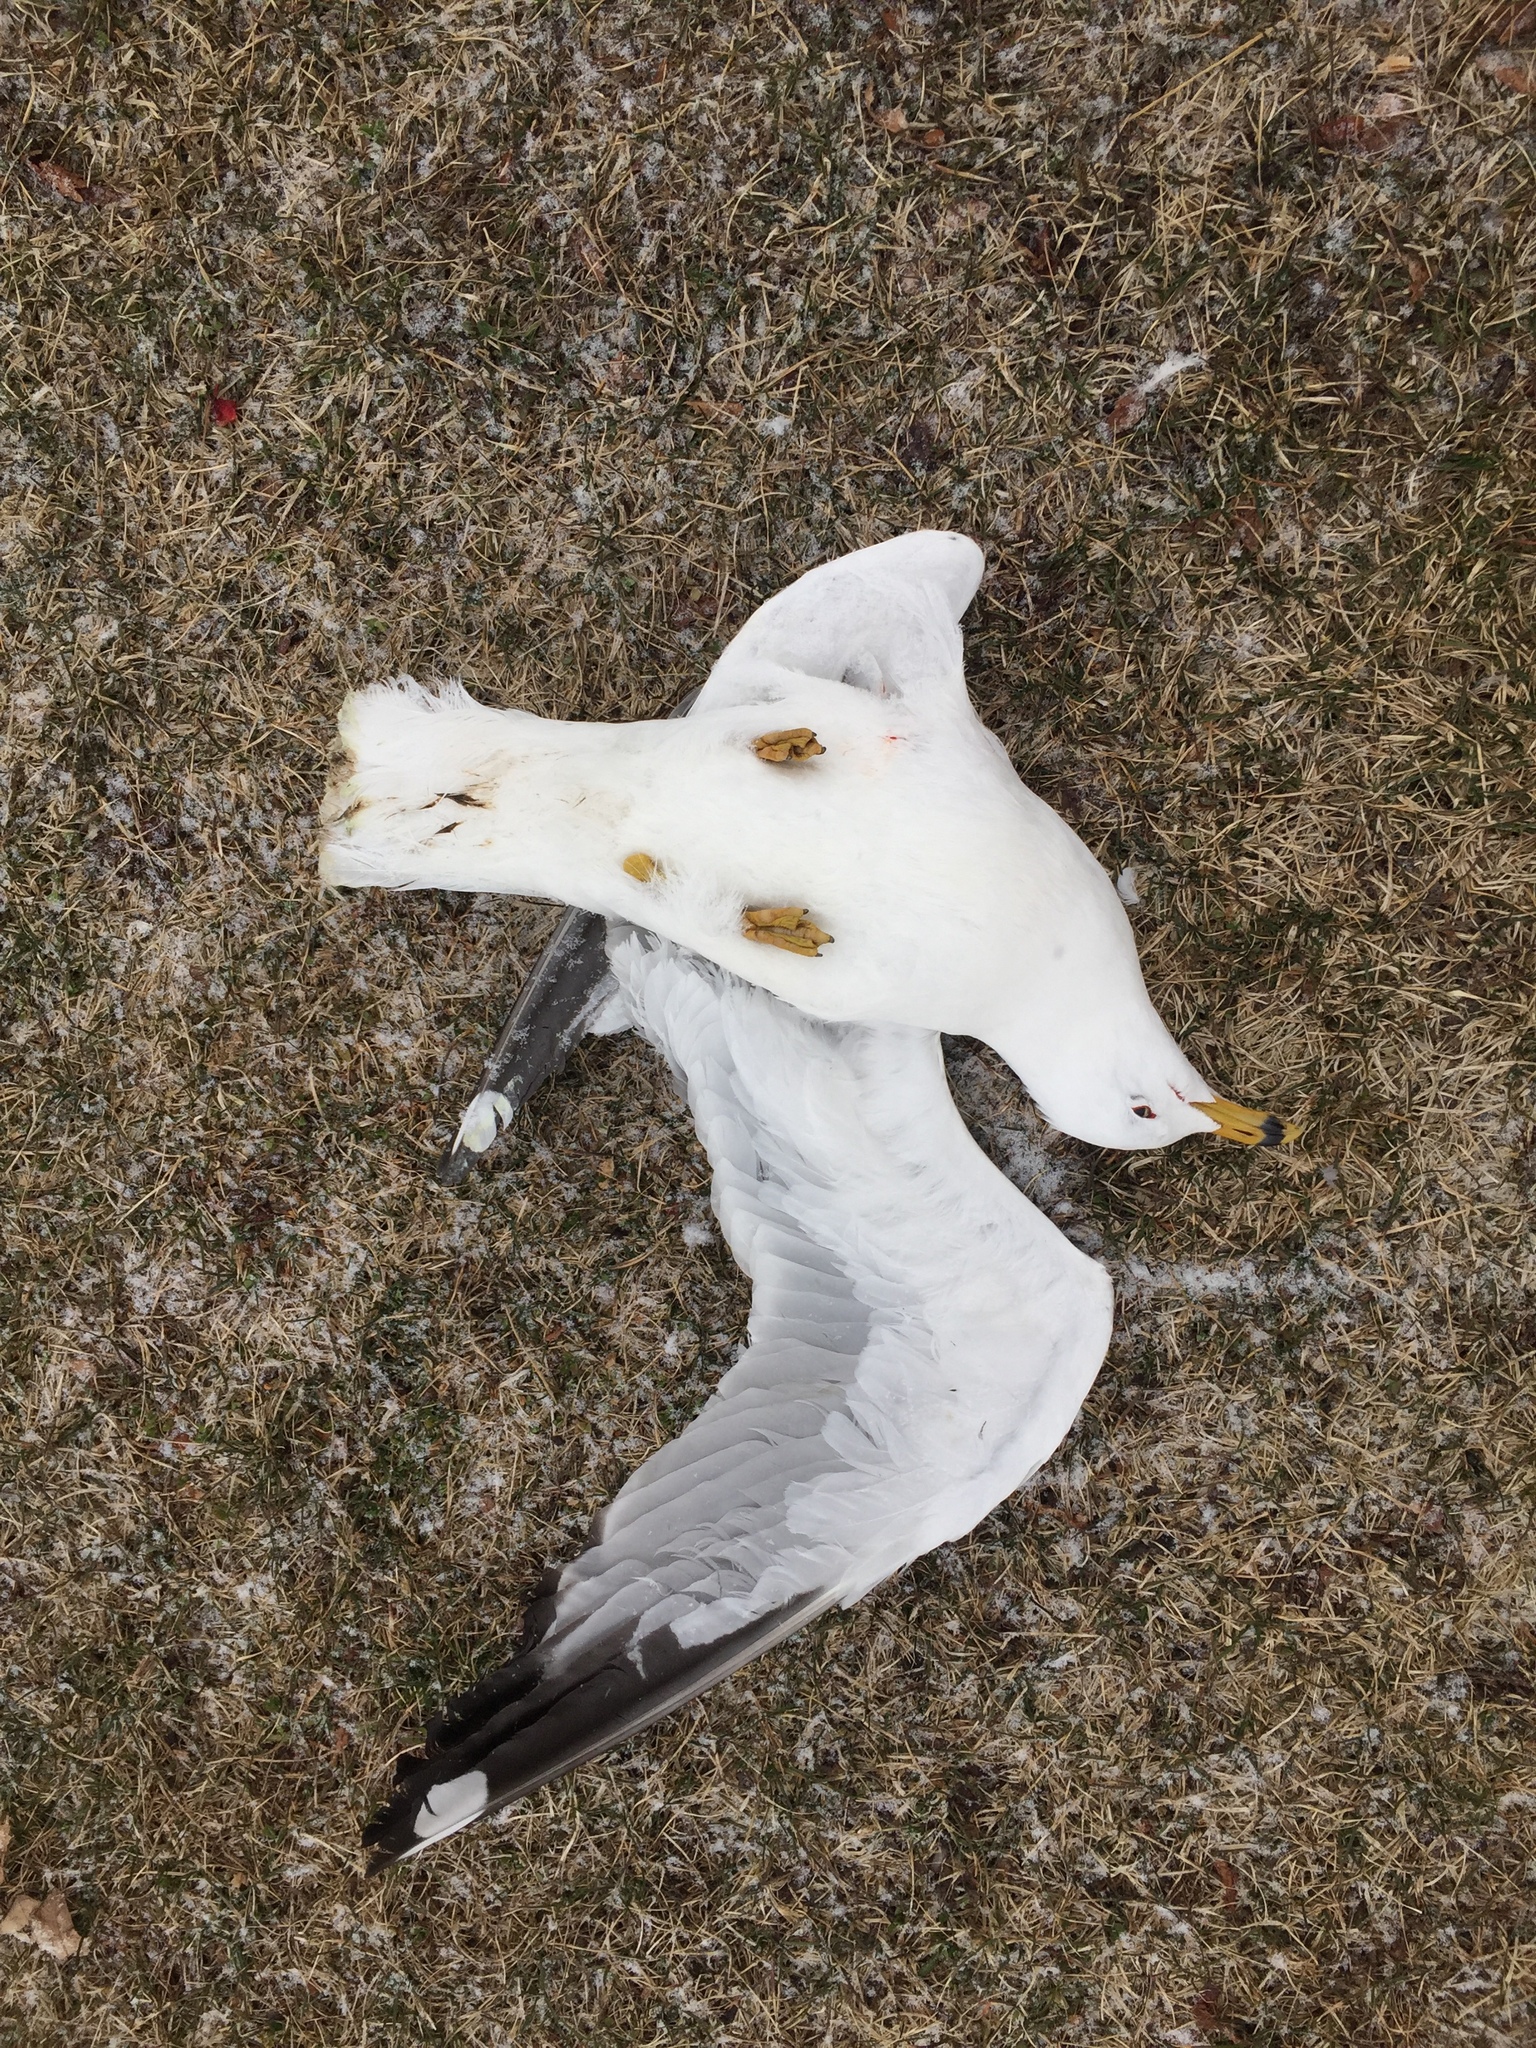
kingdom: Animalia
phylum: Chordata
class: Aves
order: Charadriiformes
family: Laridae
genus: Larus
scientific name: Larus delawarensis
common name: Ring-billed gull
